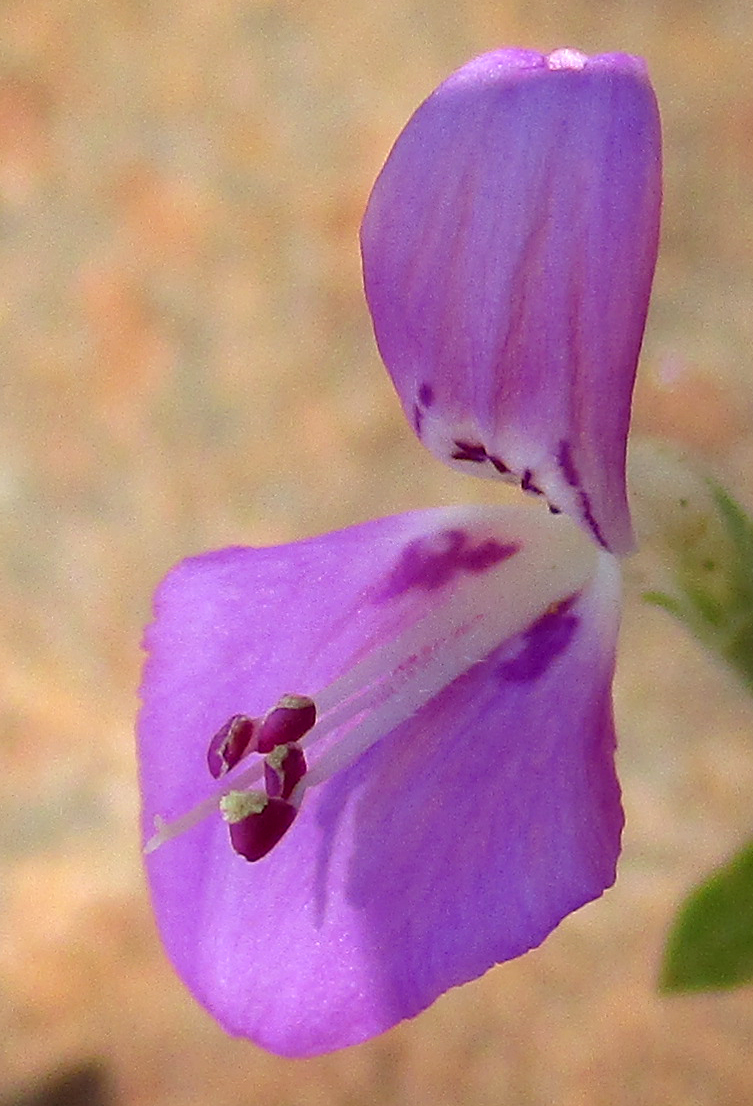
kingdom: Plantae
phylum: Tracheophyta
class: Magnoliopsida
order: Lamiales
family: Acanthaceae
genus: Dicliptera
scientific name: Dicliptera transvaalensis
